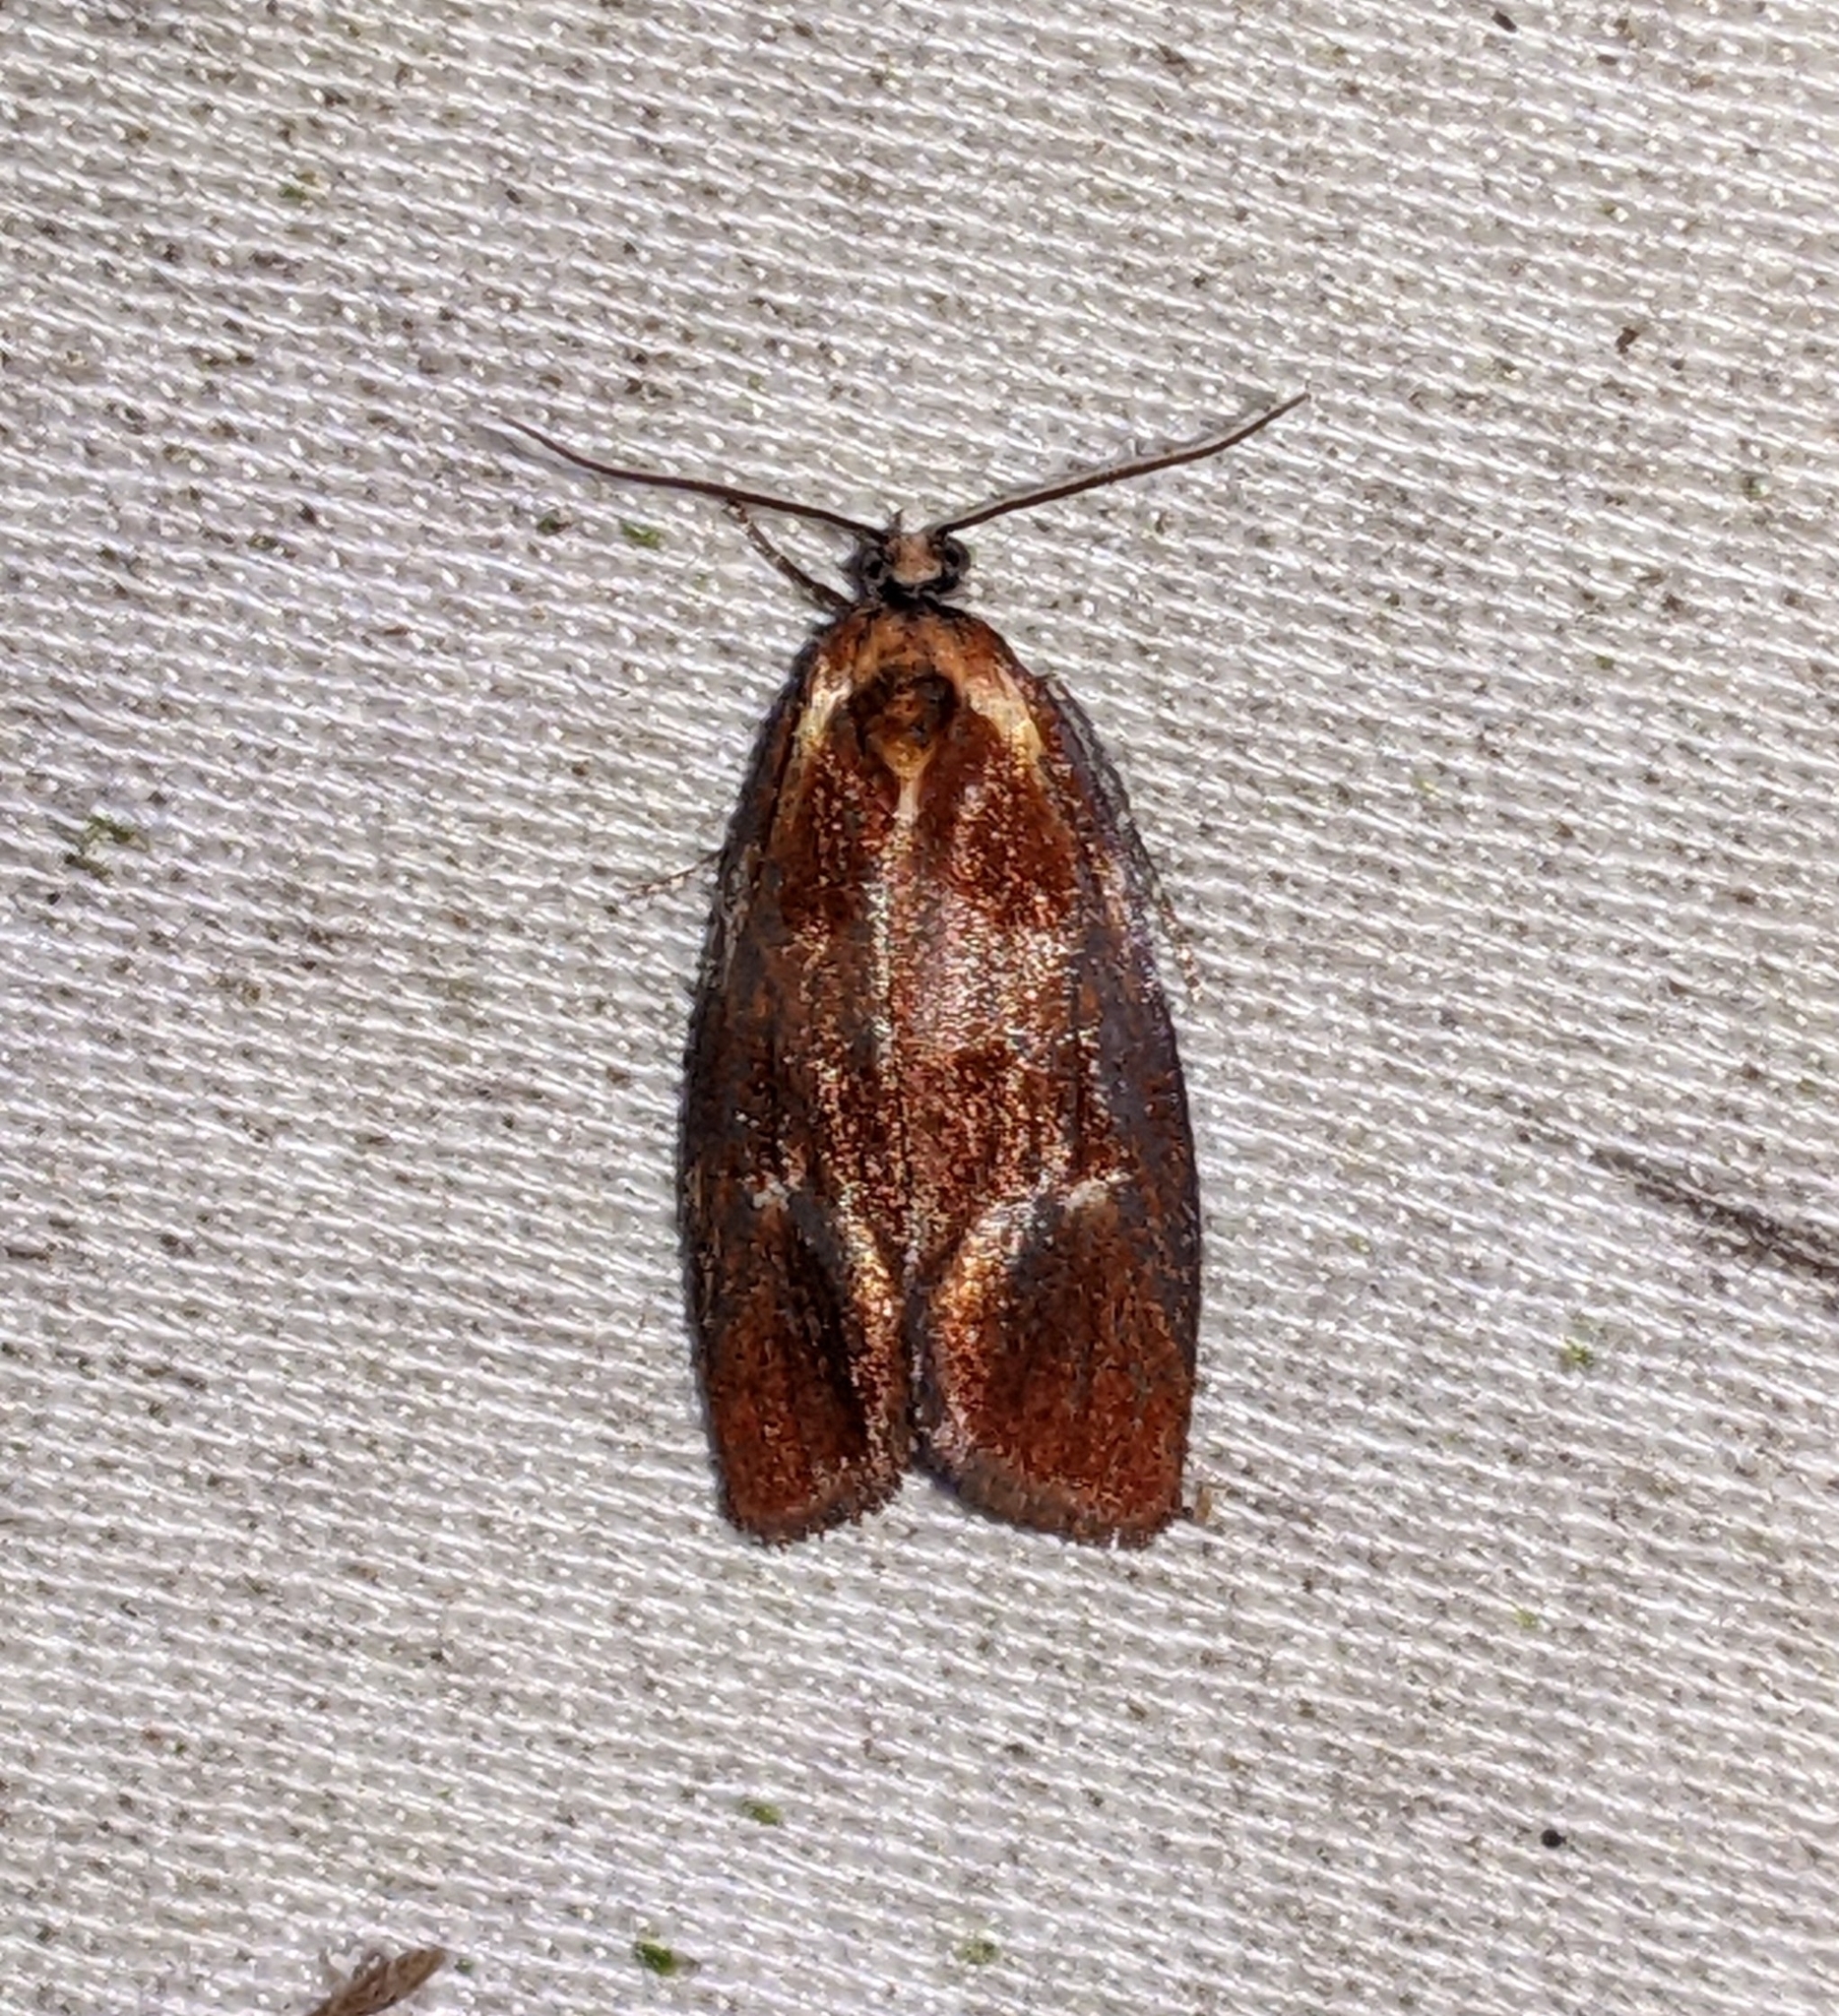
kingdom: Animalia
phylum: Arthropoda
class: Insecta
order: Lepidoptera
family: Tortricidae
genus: Eulia
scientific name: Eulia ministrana
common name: Brassy twist
